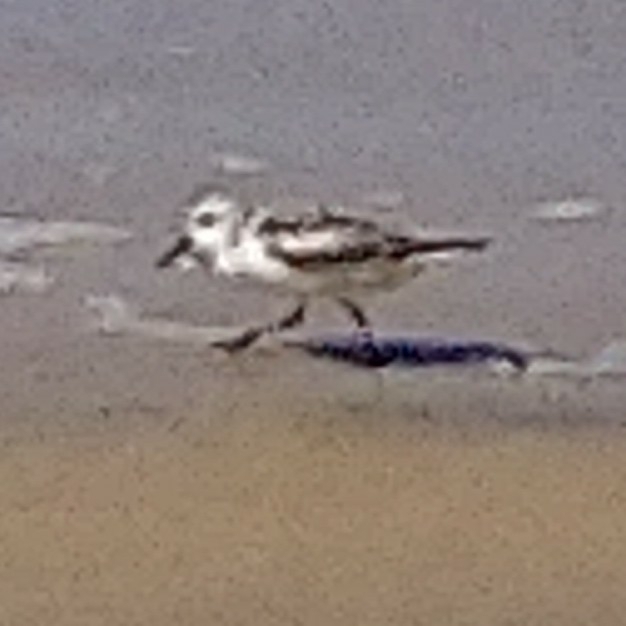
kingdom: Animalia
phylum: Chordata
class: Aves
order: Charadriiformes
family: Scolopacidae
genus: Calidris
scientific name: Calidris alba
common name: Sanderling
